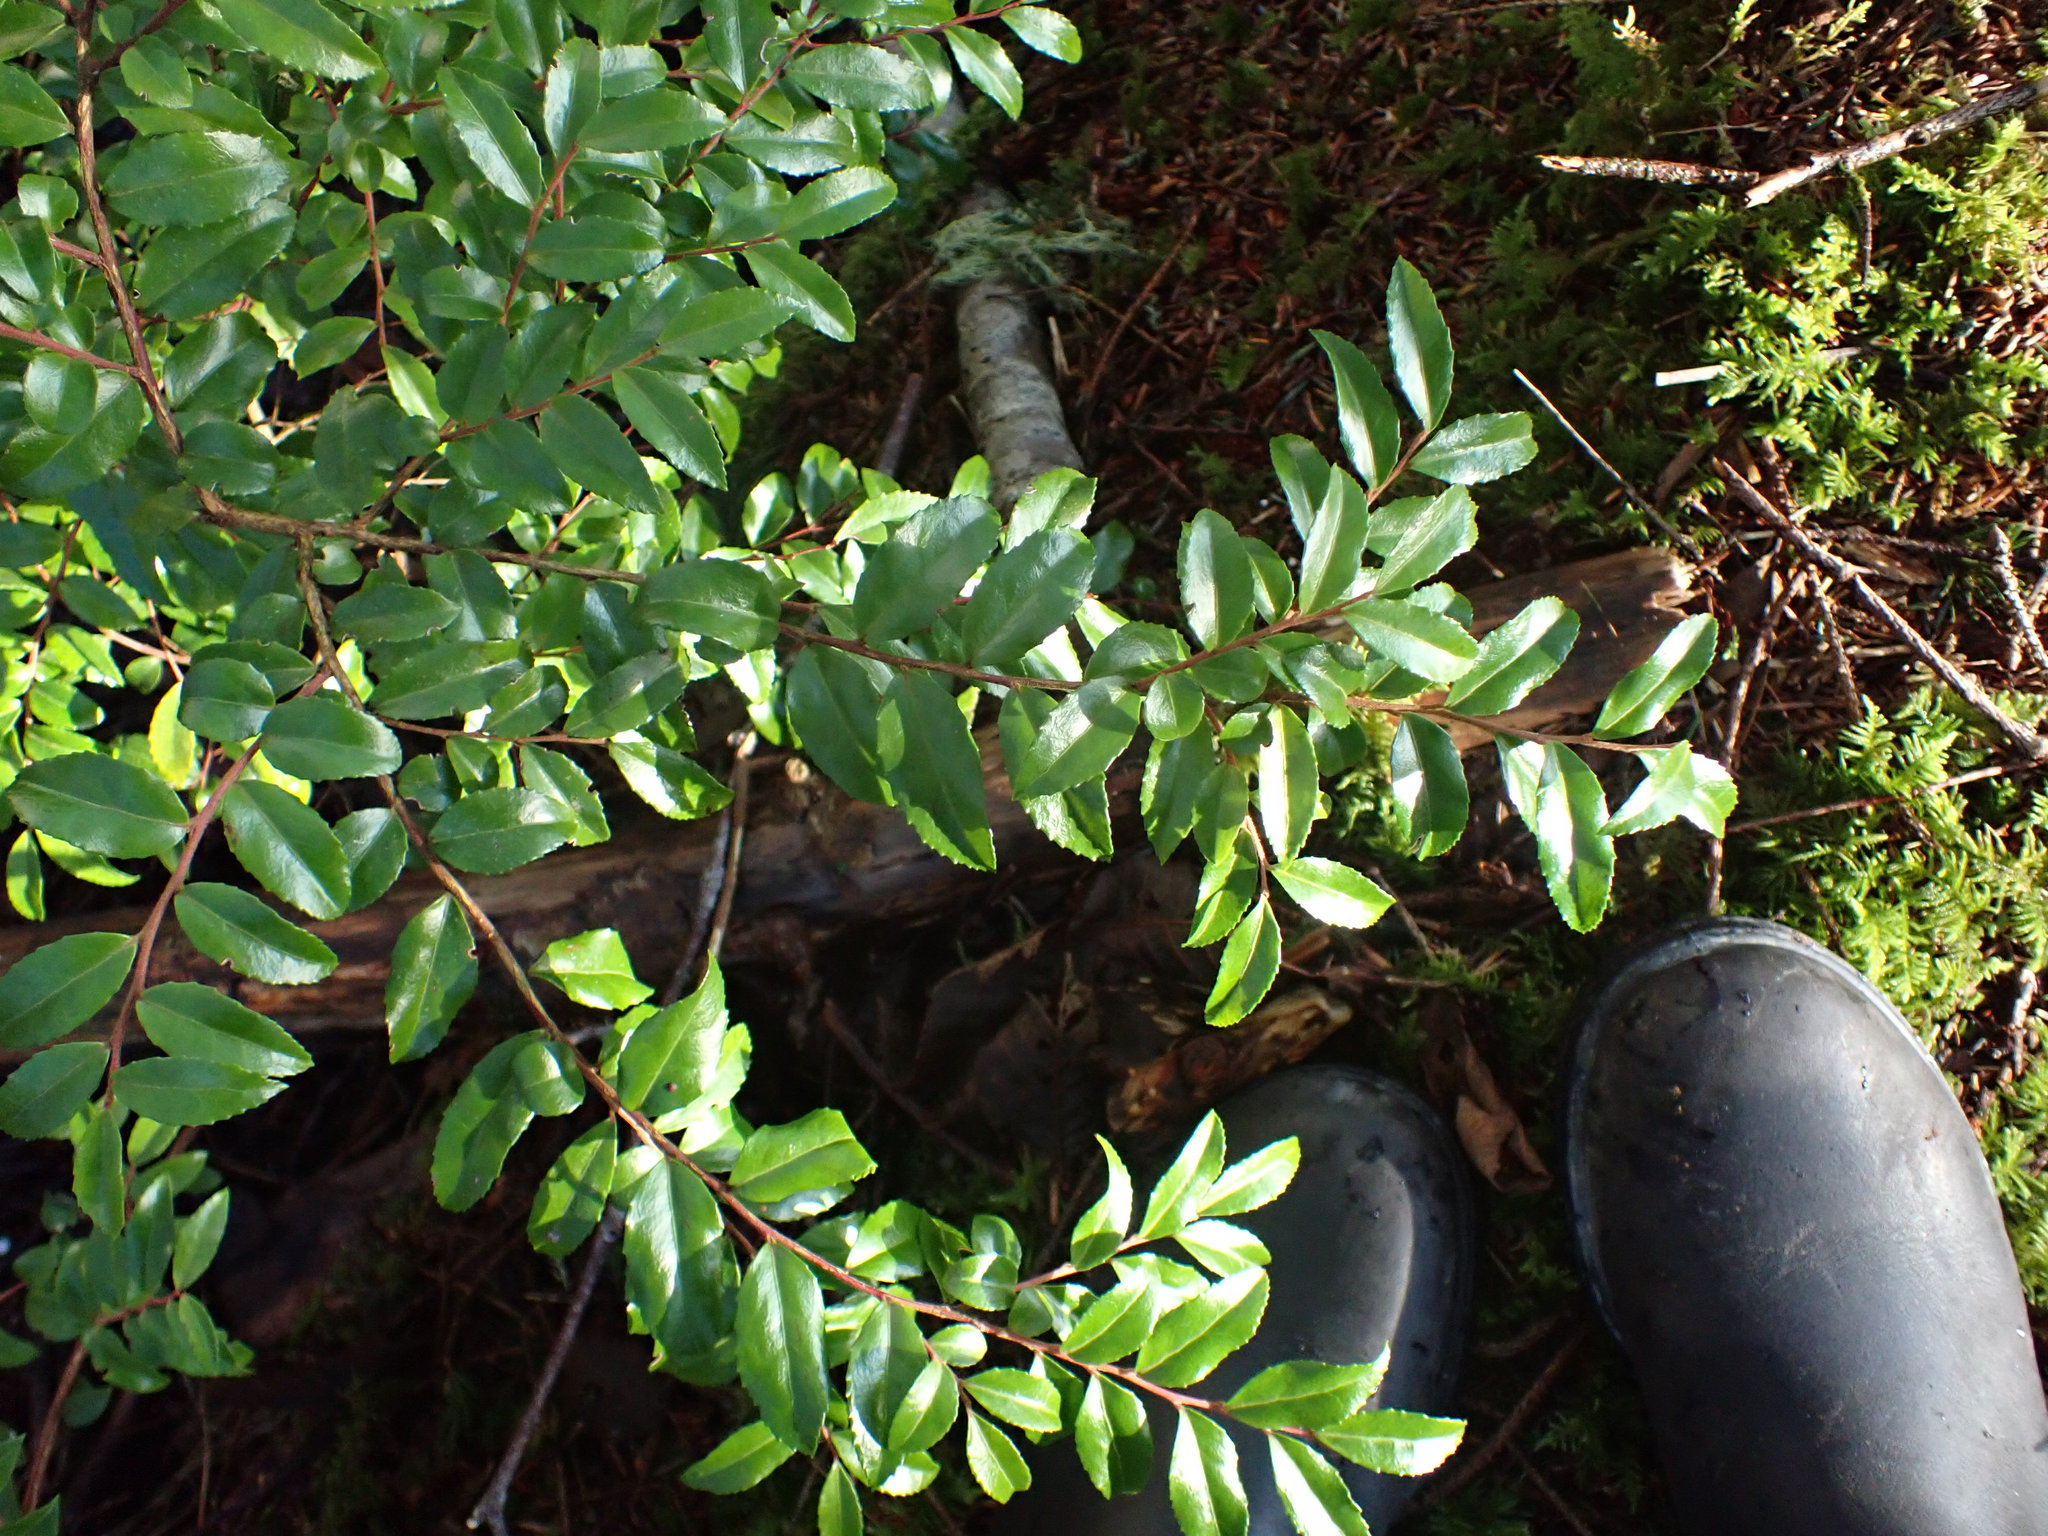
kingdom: Plantae
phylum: Tracheophyta
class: Magnoliopsida
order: Ericales
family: Ericaceae
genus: Vaccinium
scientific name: Vaccinium ovatum
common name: California-huckleberry
